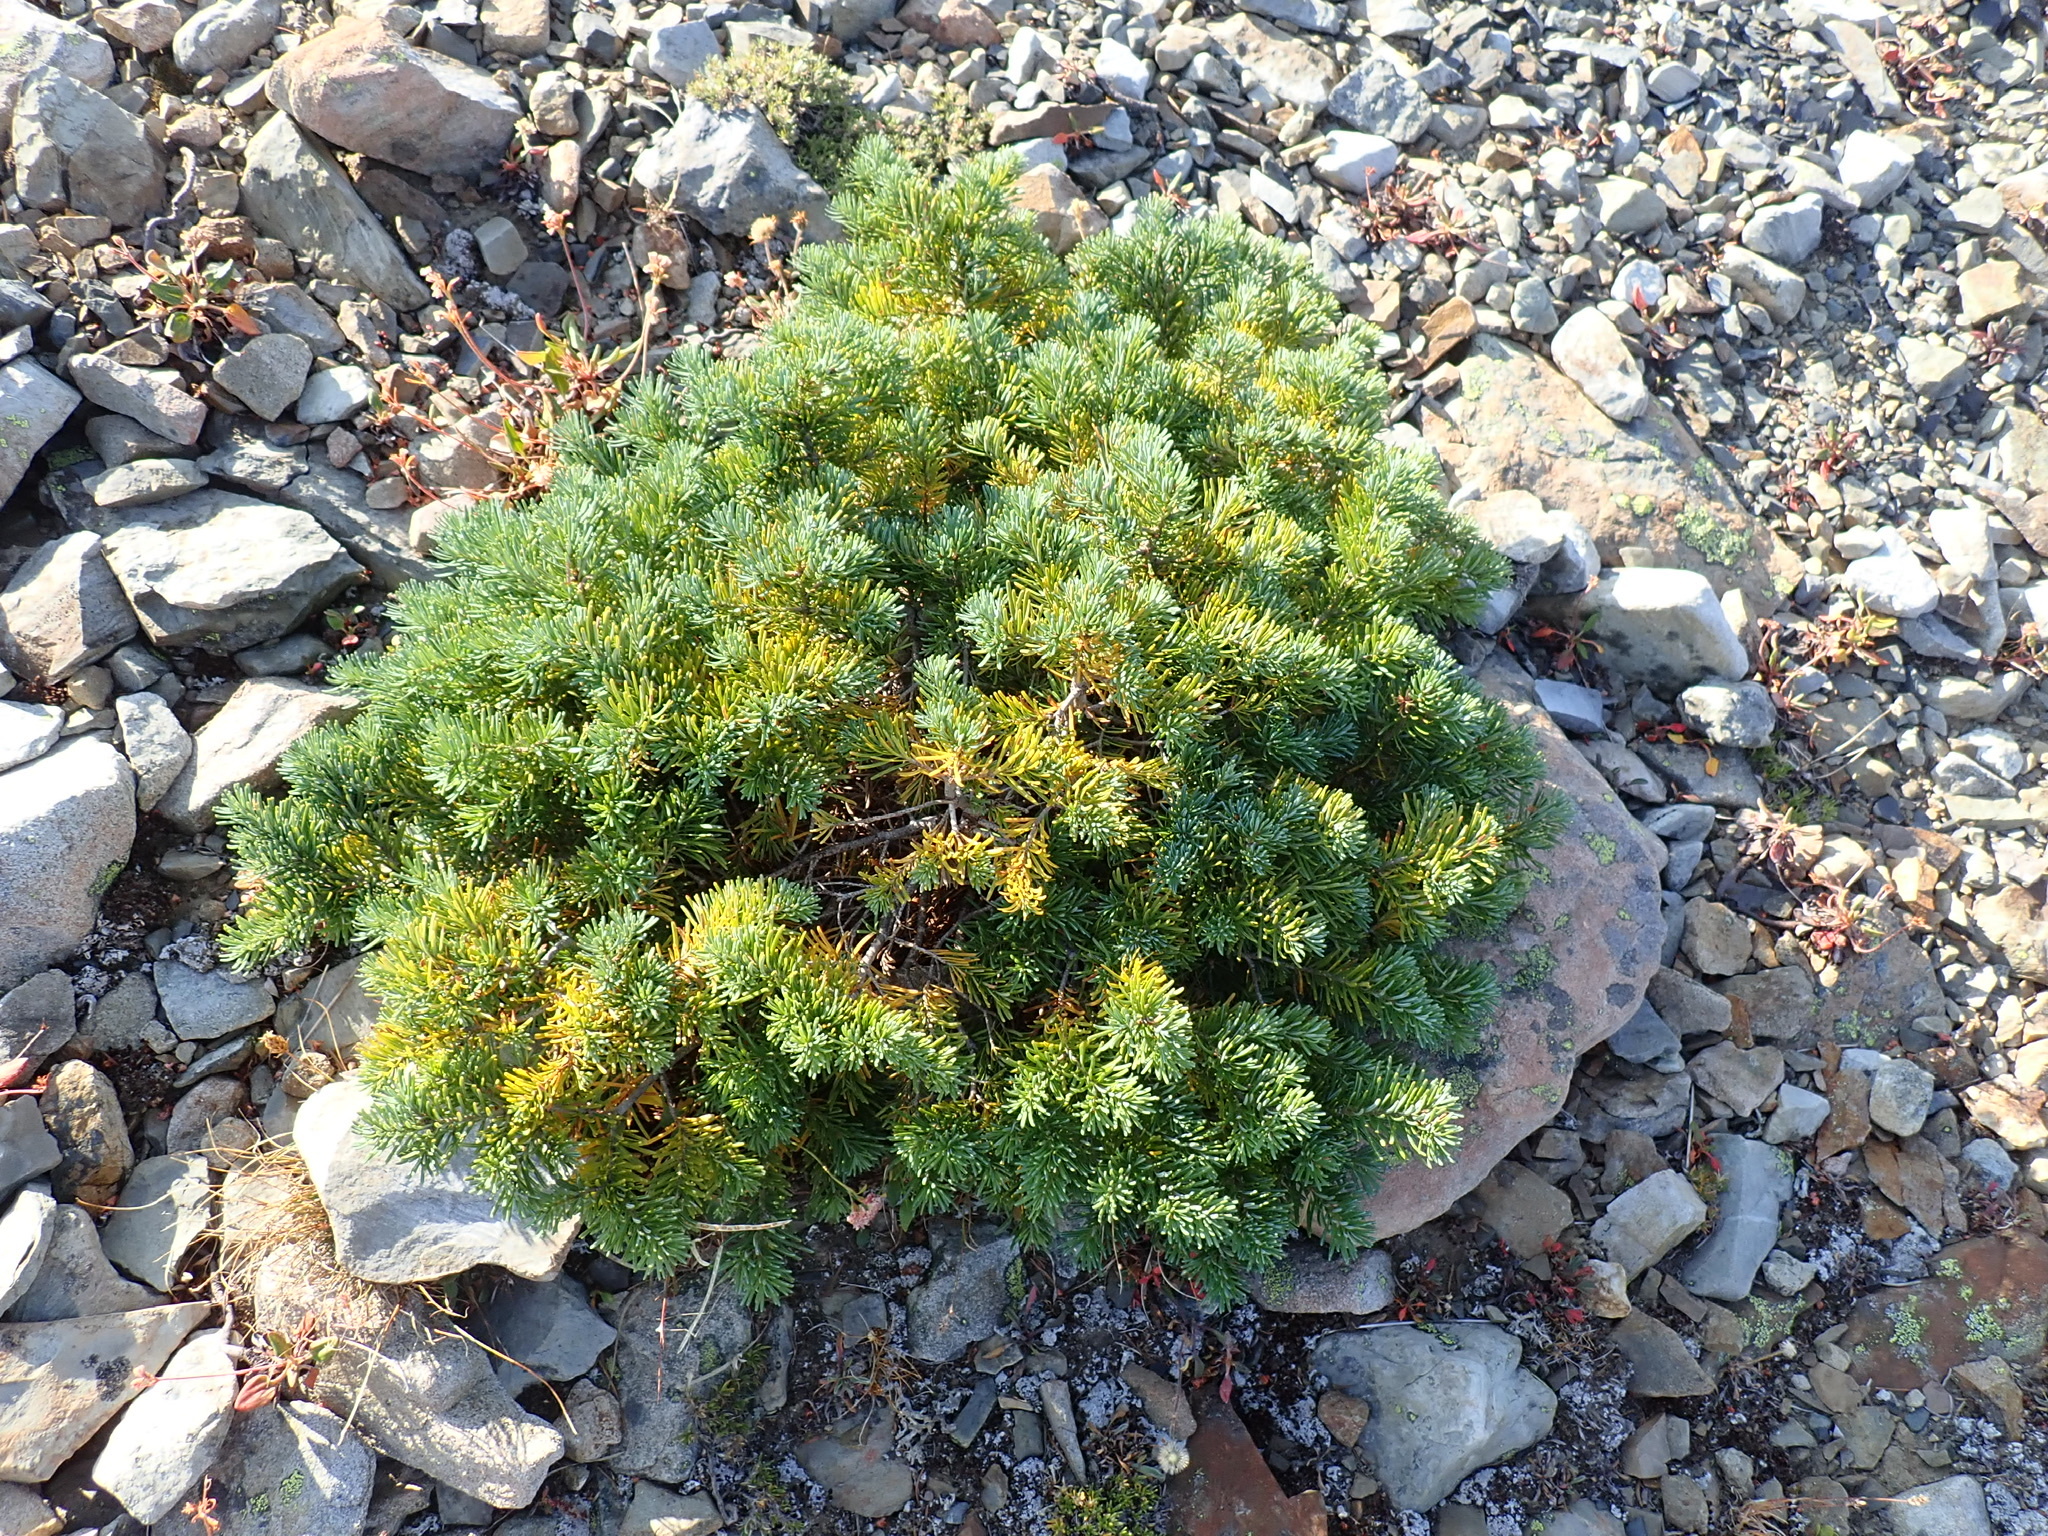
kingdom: Plantae
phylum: Tracheophyta
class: Pinopsida
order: Pinales
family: Pinaceae
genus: Abies
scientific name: Abies lasiocarpa
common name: Subalpine fir
